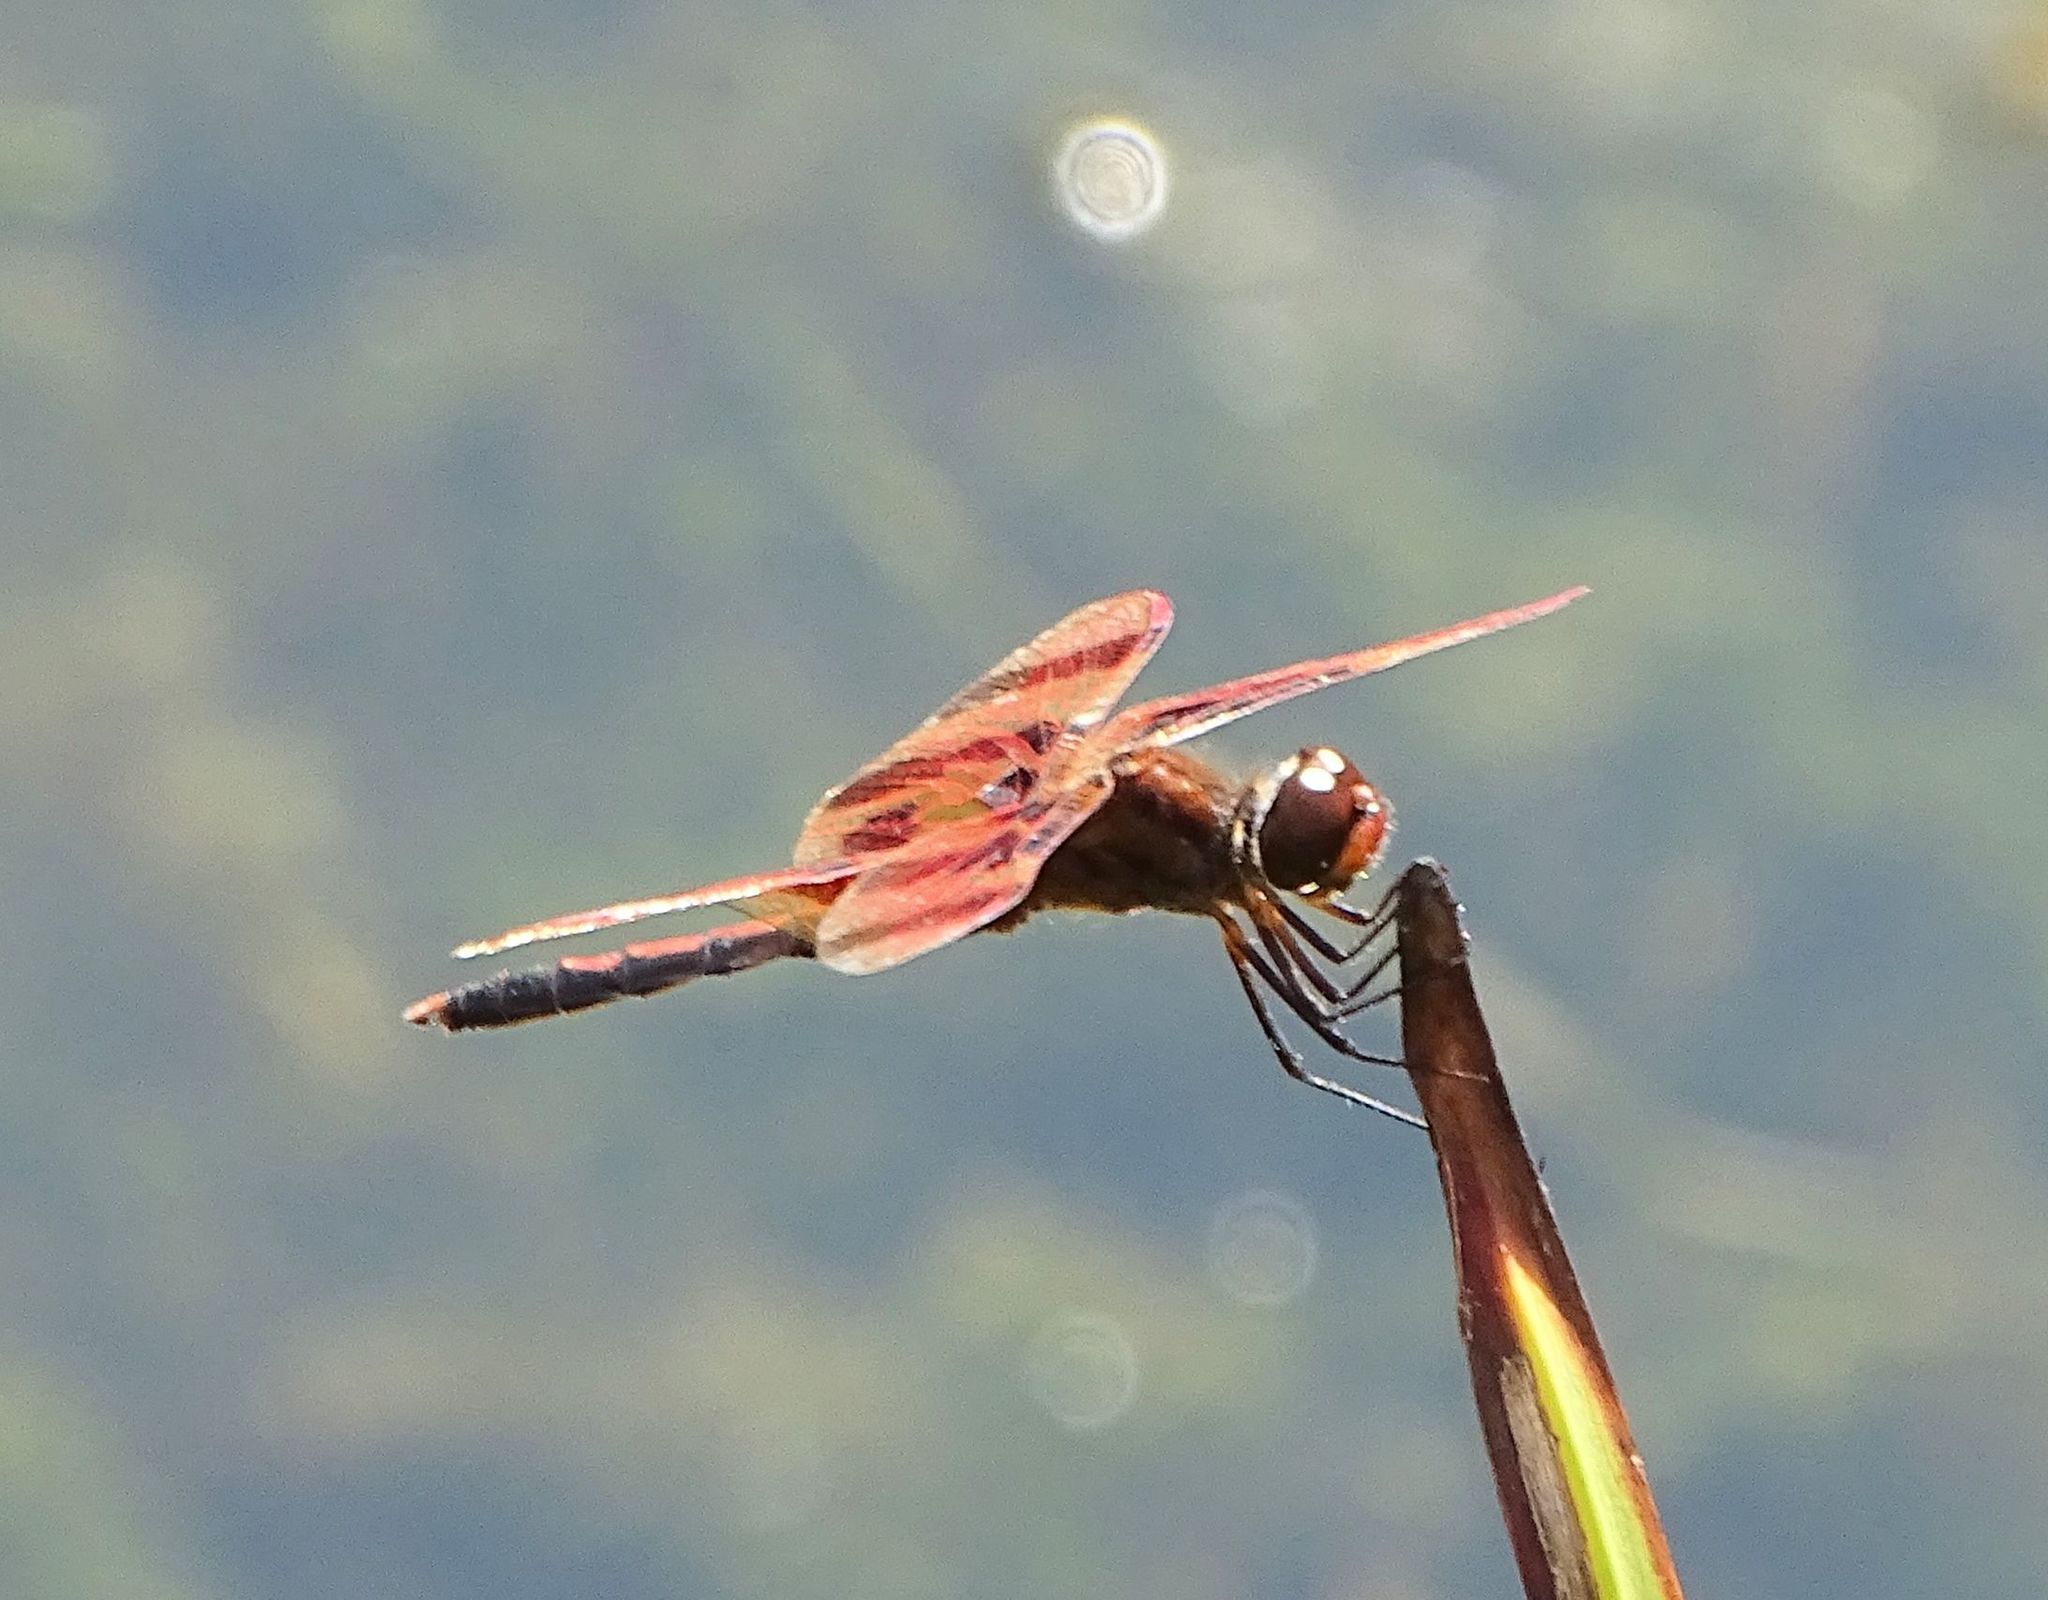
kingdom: Animalia
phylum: Arthropoda
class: Insecta
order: Odonata
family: Libellulidae
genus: Celithemis
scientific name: Celithemis eponina
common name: Halloween pennant
